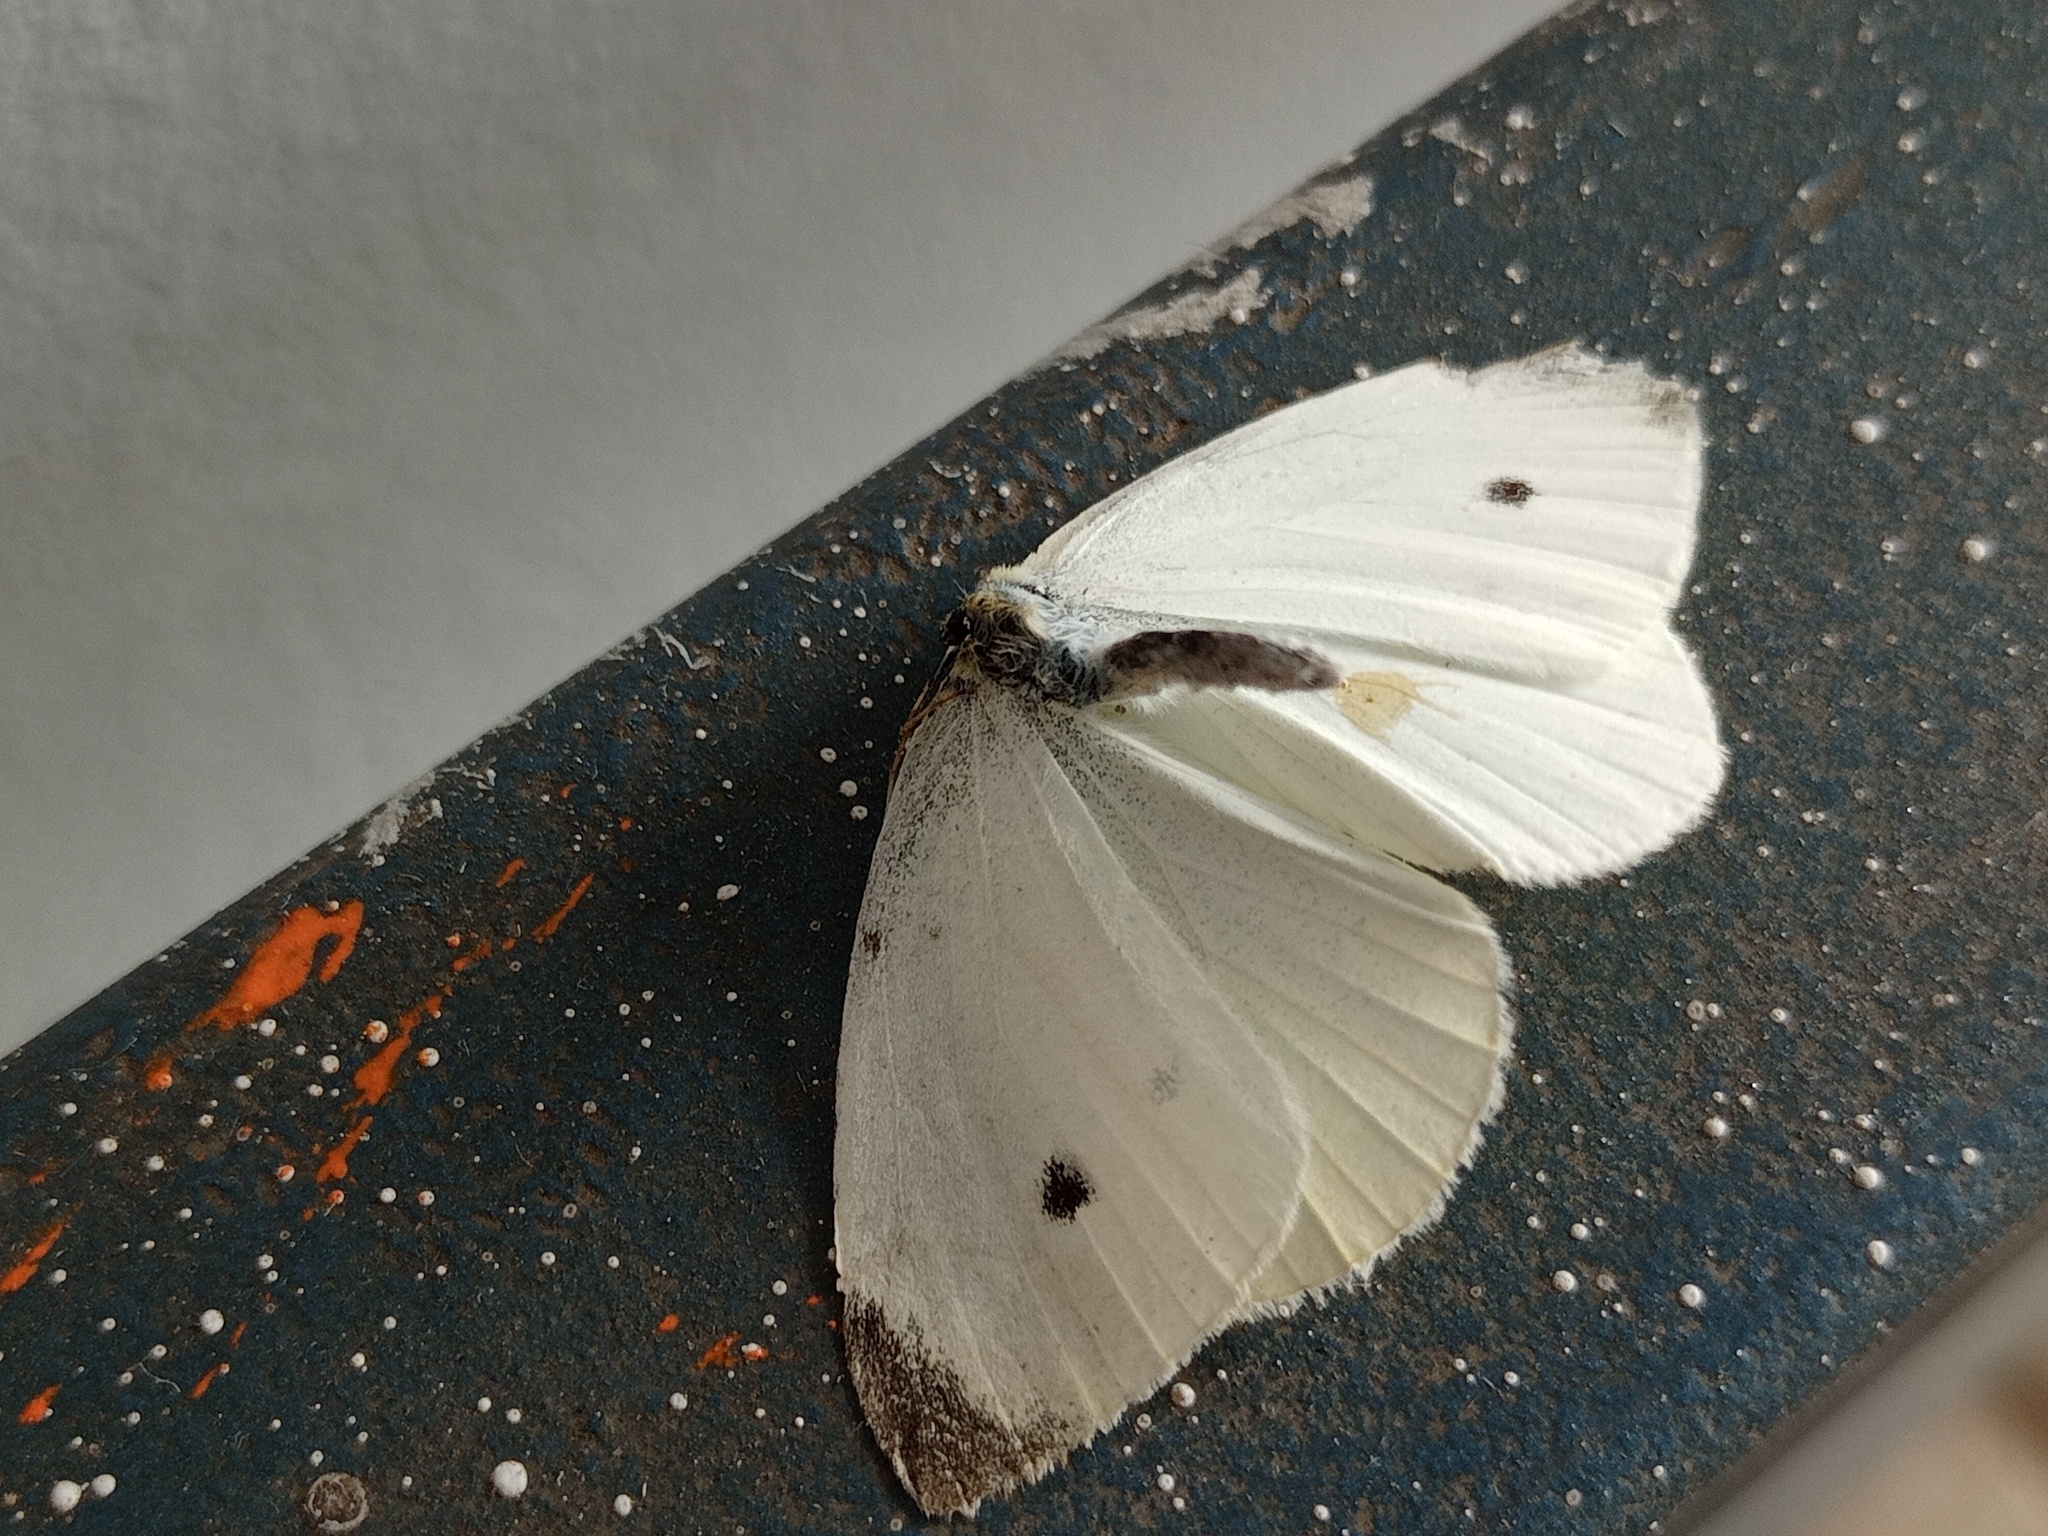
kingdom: Animalia
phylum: Arthropoda
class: Insecta
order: Lepidoptera
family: Pieridae
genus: Pieris
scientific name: Pieris rapae
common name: Small white
